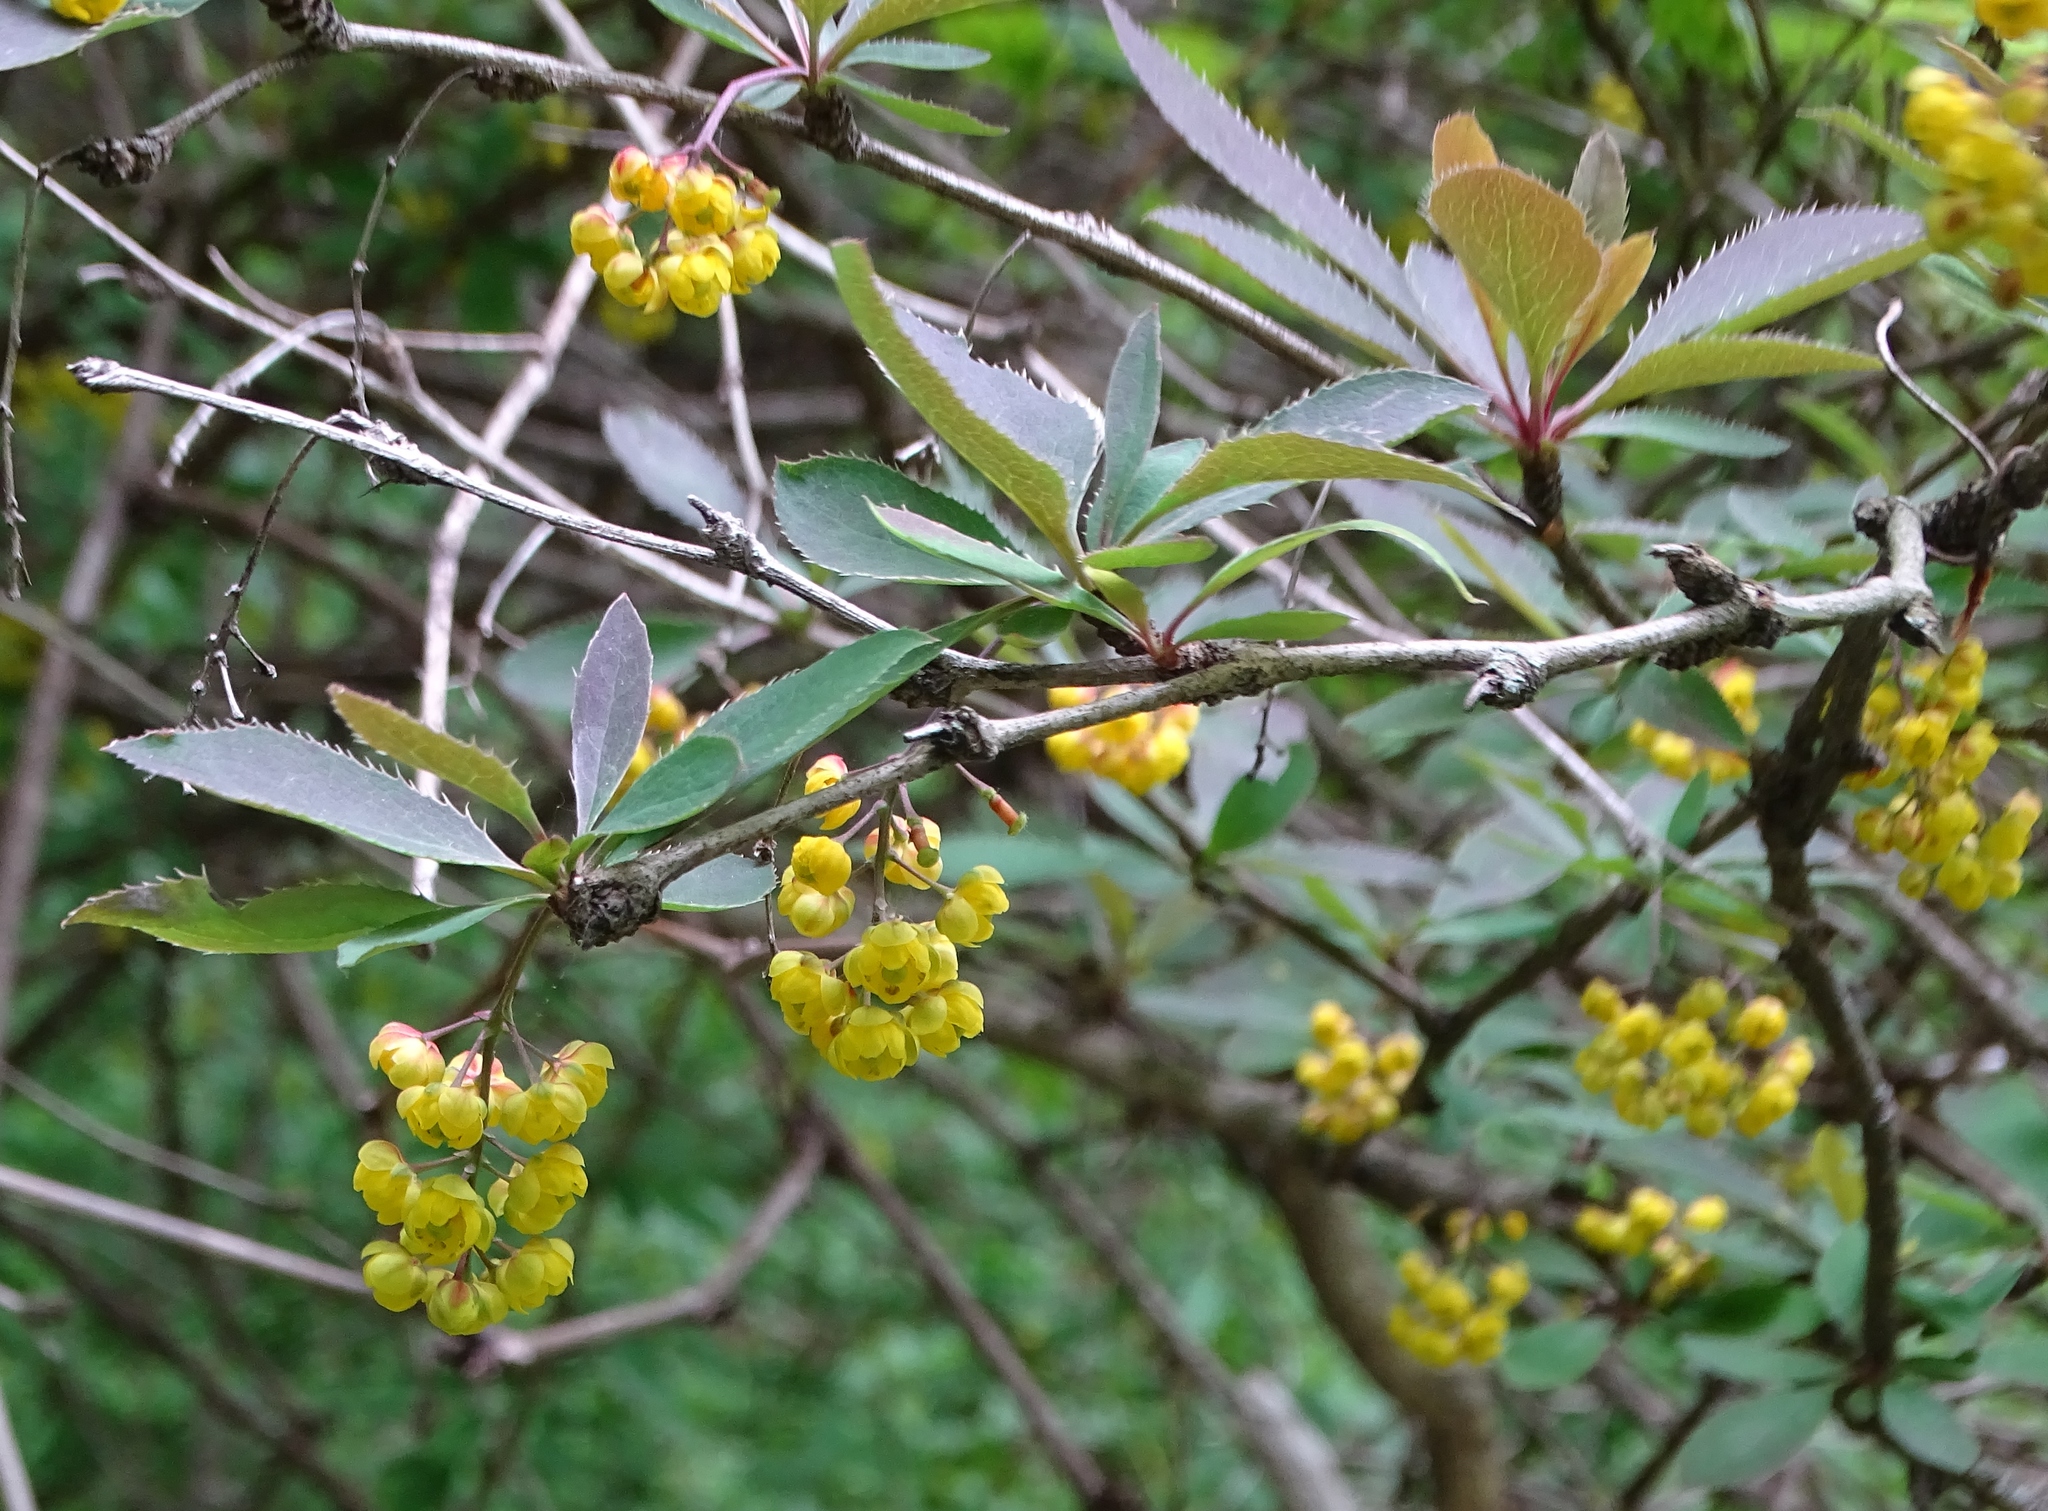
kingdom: Plantae
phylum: Tracheophyta
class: Magnoliopsida
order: Ranunculales
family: Berberidaceae
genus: Berberis
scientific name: Berberis vulgaris
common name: Barberry
